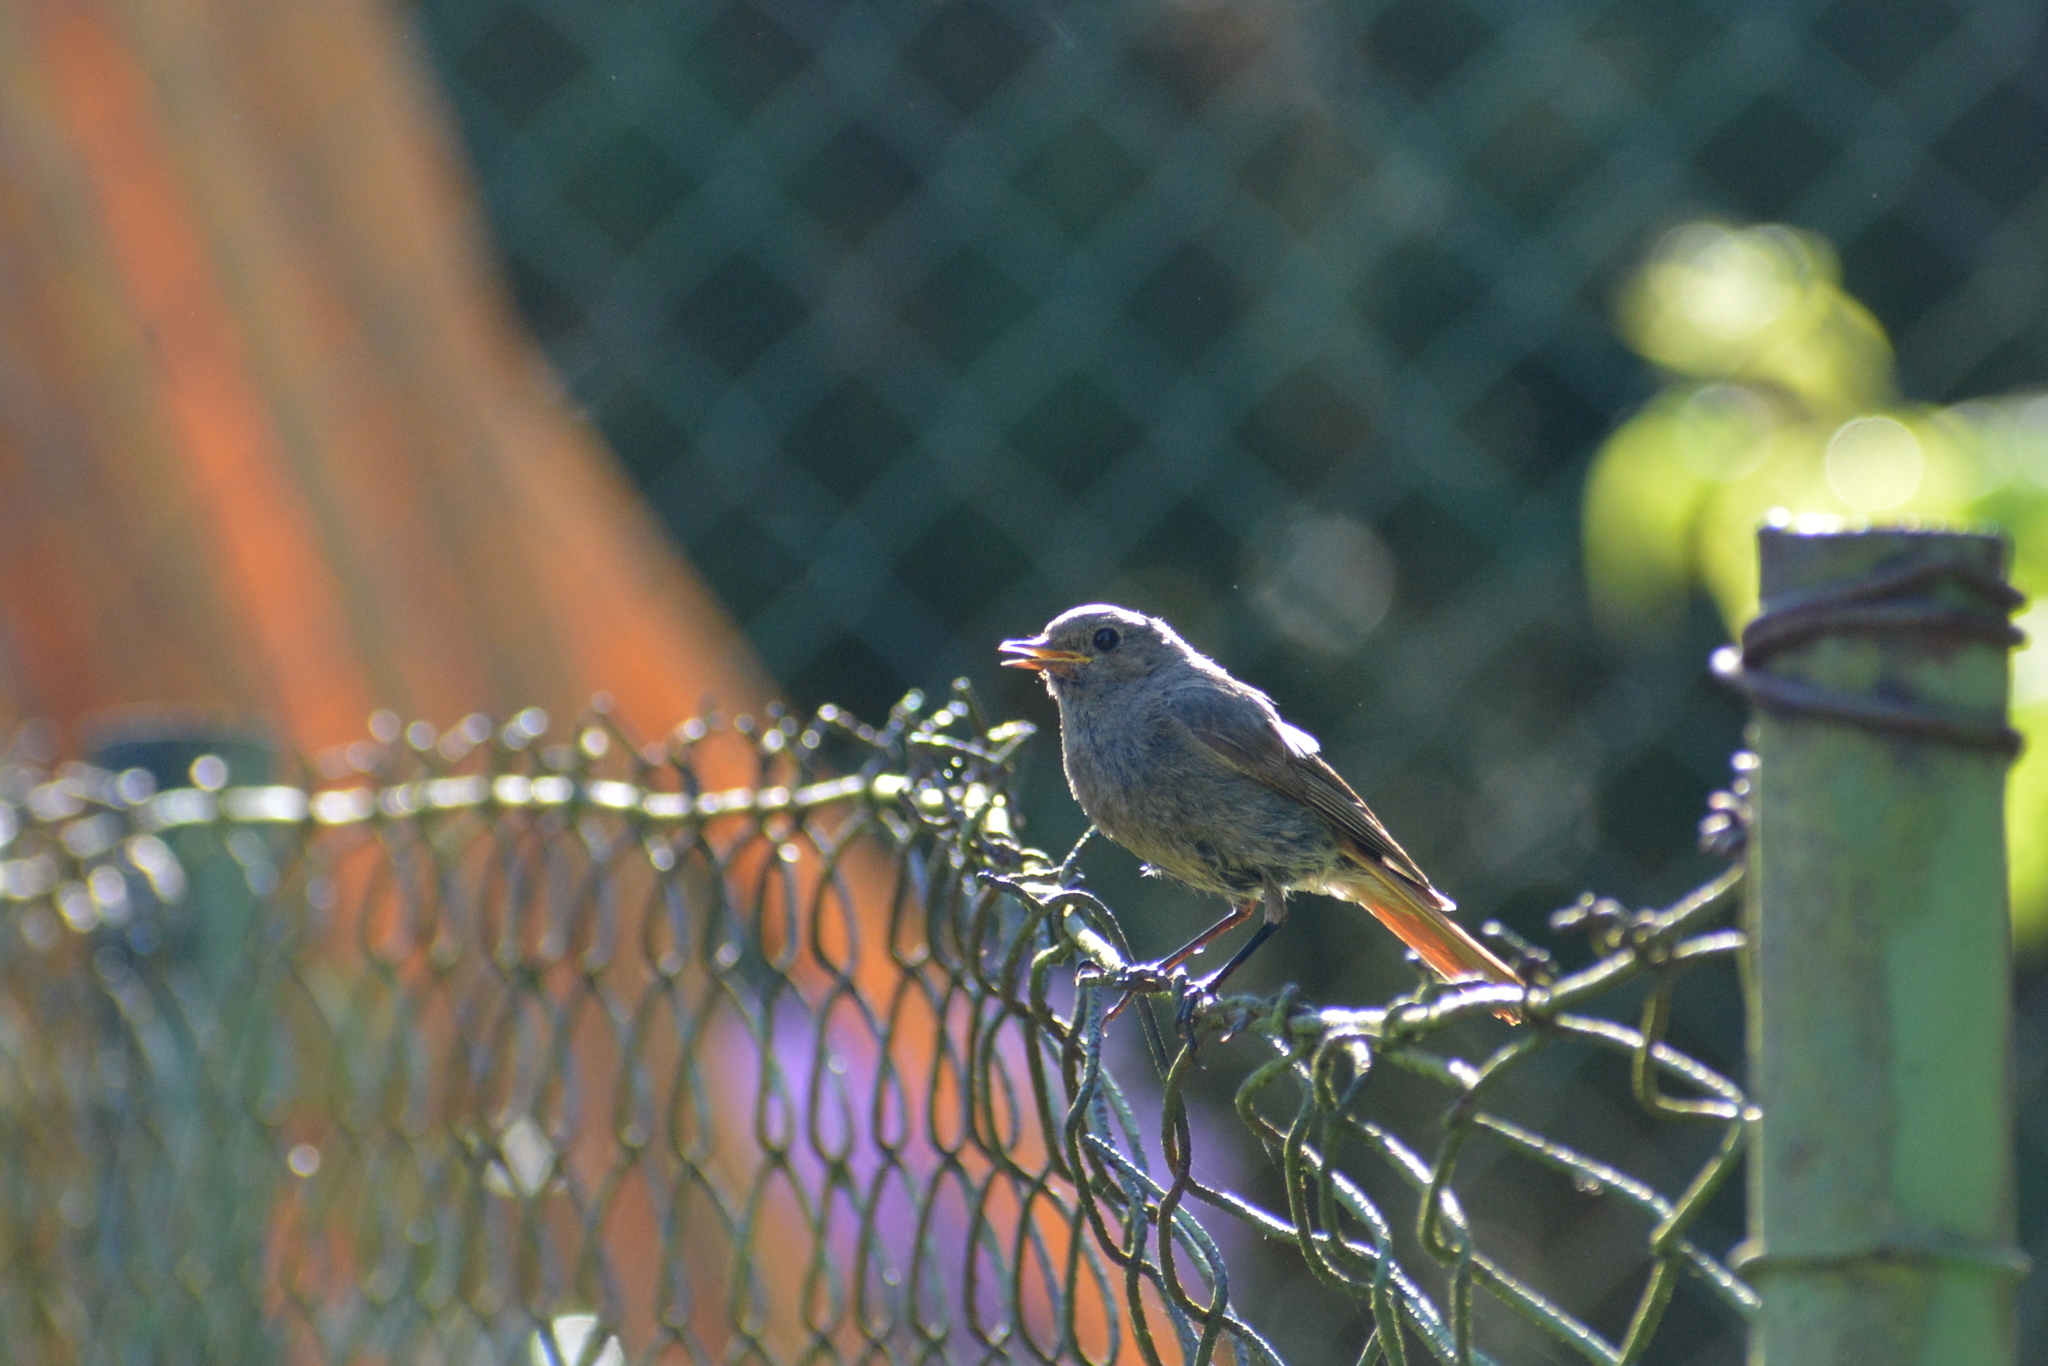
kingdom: Animalia
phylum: Chordata
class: Aves
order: Passeriformes
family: Muscicapidae
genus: Phoenicurus
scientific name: Phoenicurus ochruros
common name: Black redstart
